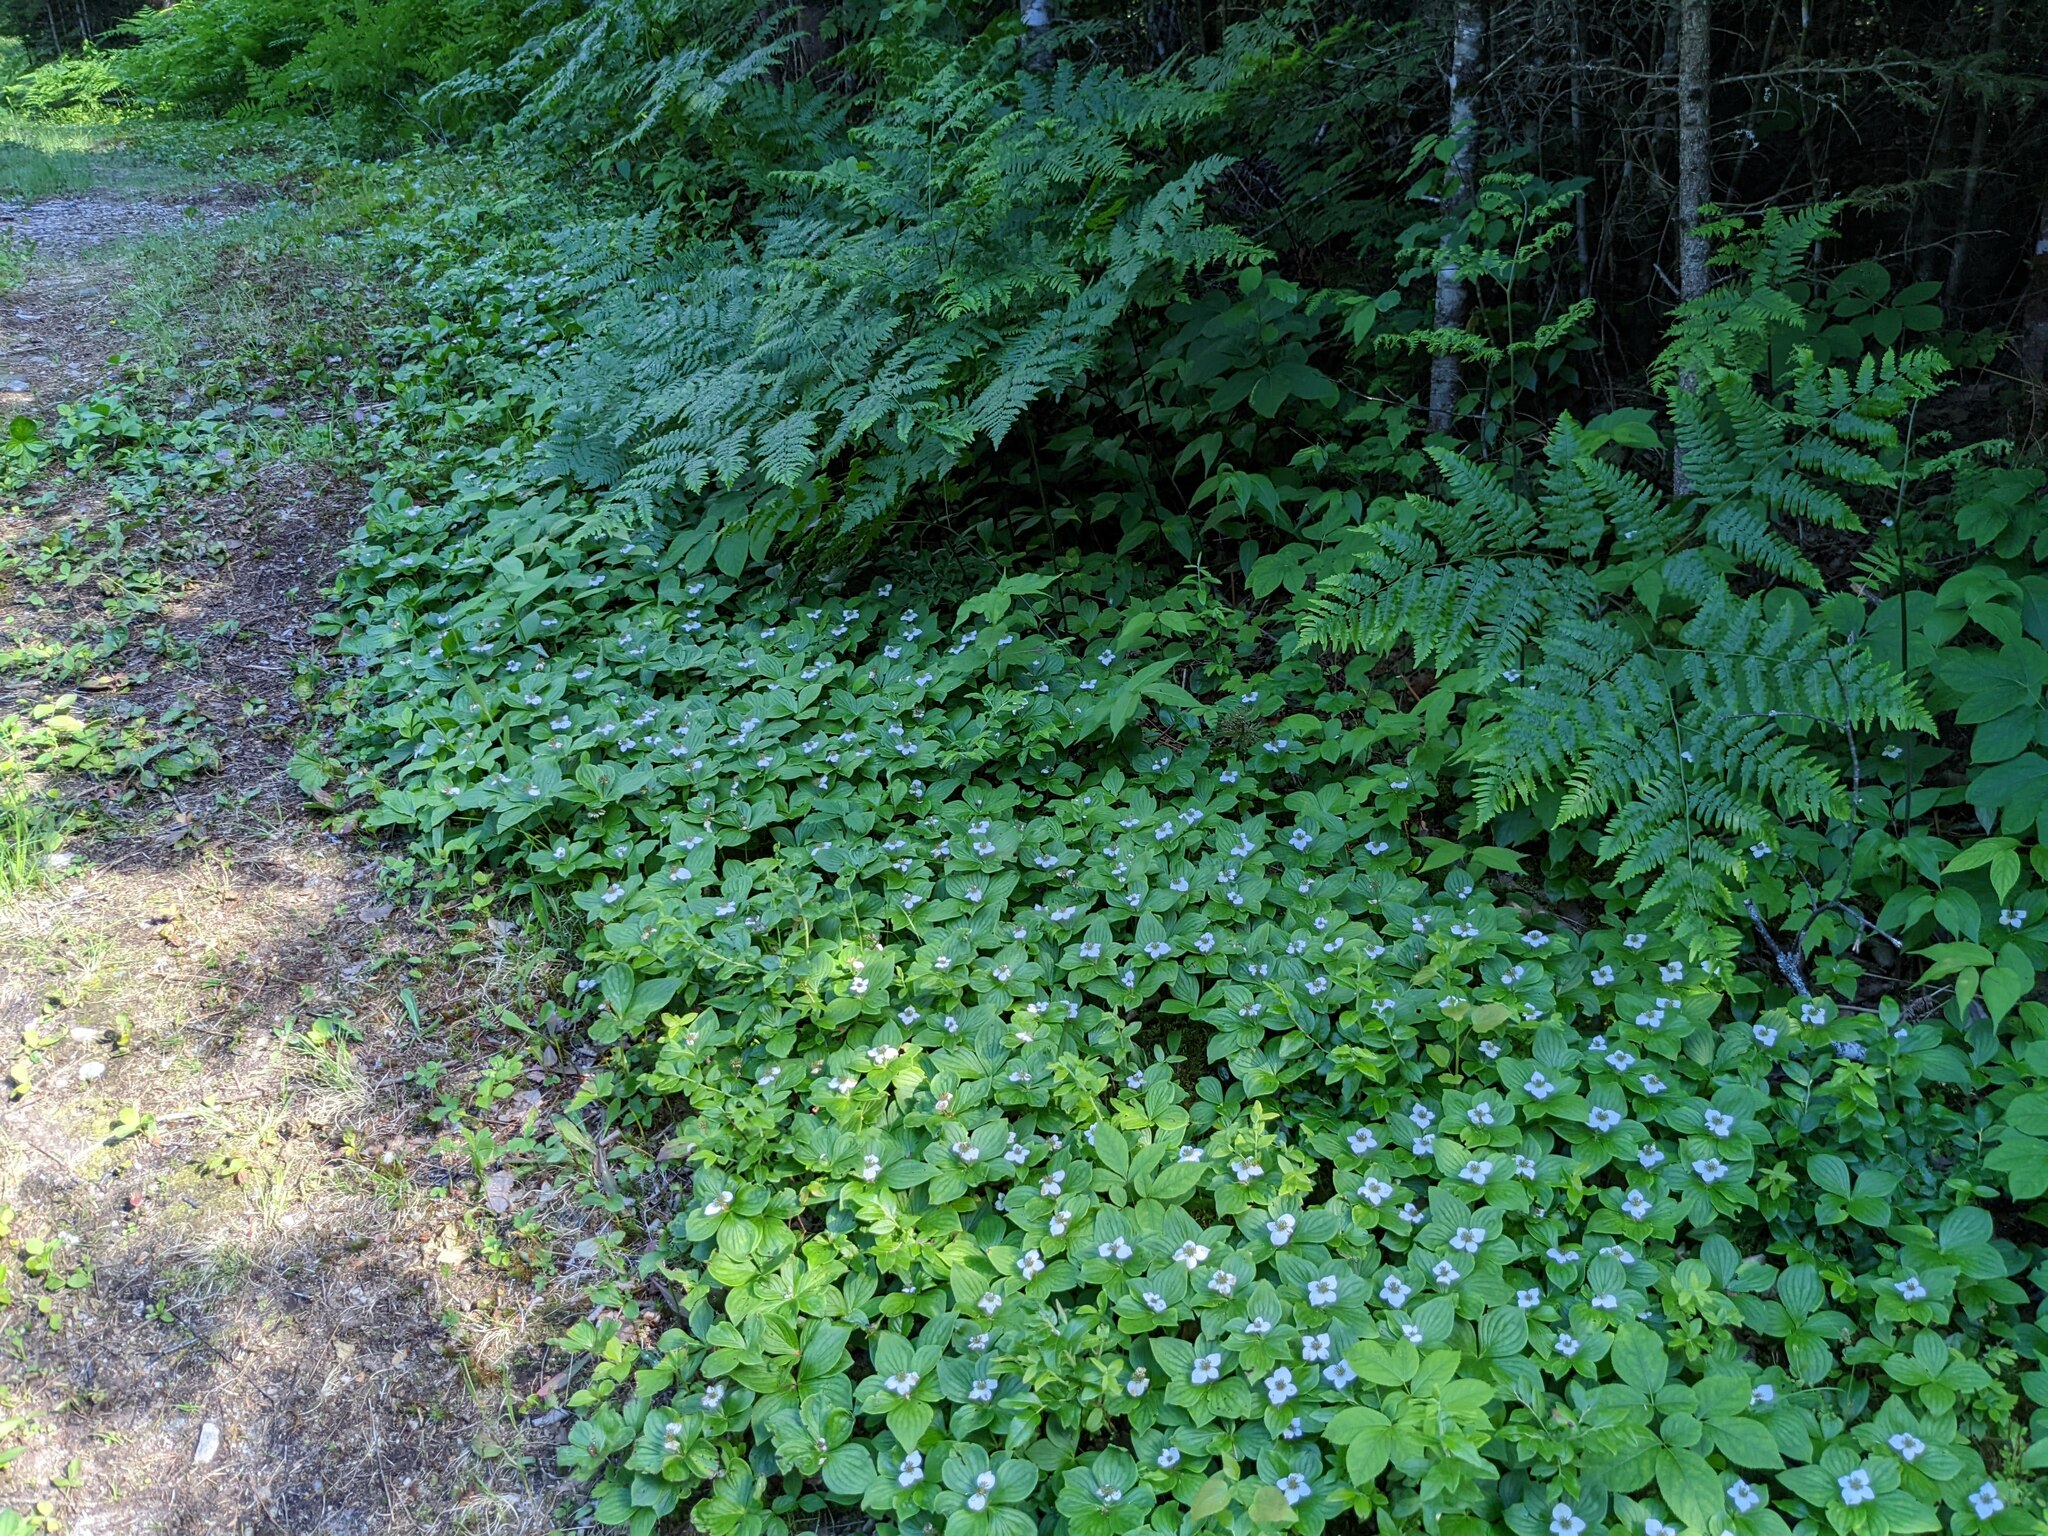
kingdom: Plantae
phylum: Tracheophyta
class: Magnoliopsida
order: Cornales
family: Cornaceae
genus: Cornus
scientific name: Cornus canadensis
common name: Creeping dogwood
